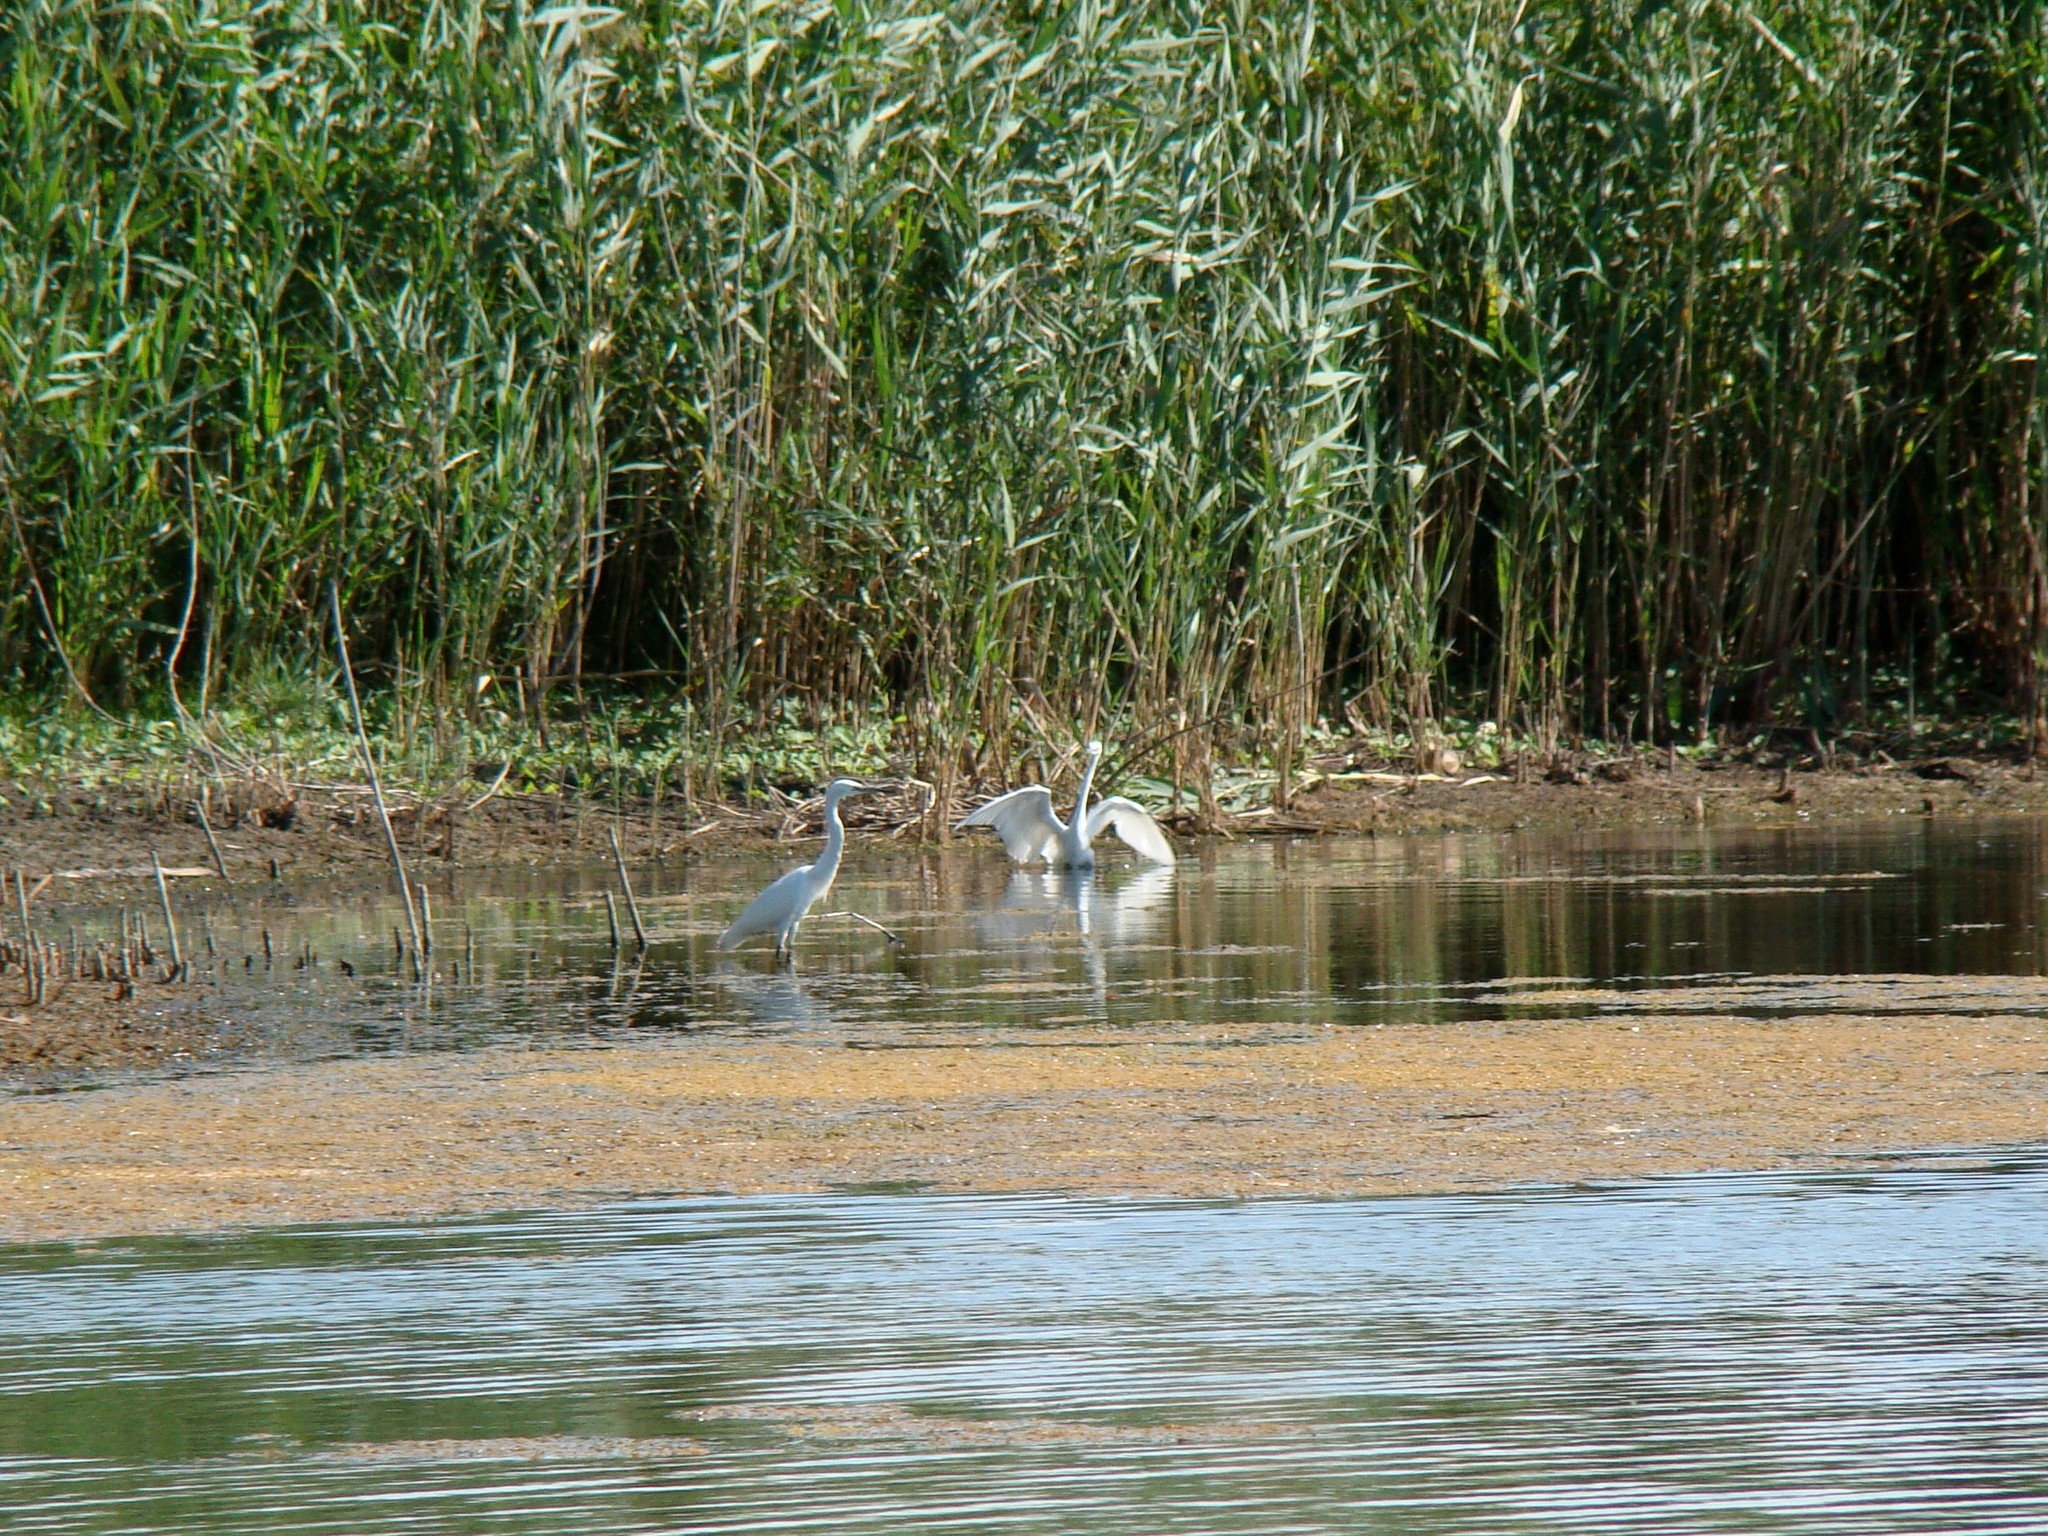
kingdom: Animalia
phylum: Chordata
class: Aves
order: Pelecaniformes
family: Ardeidae
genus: Egretta
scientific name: Egretta garzetta
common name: Little egret
